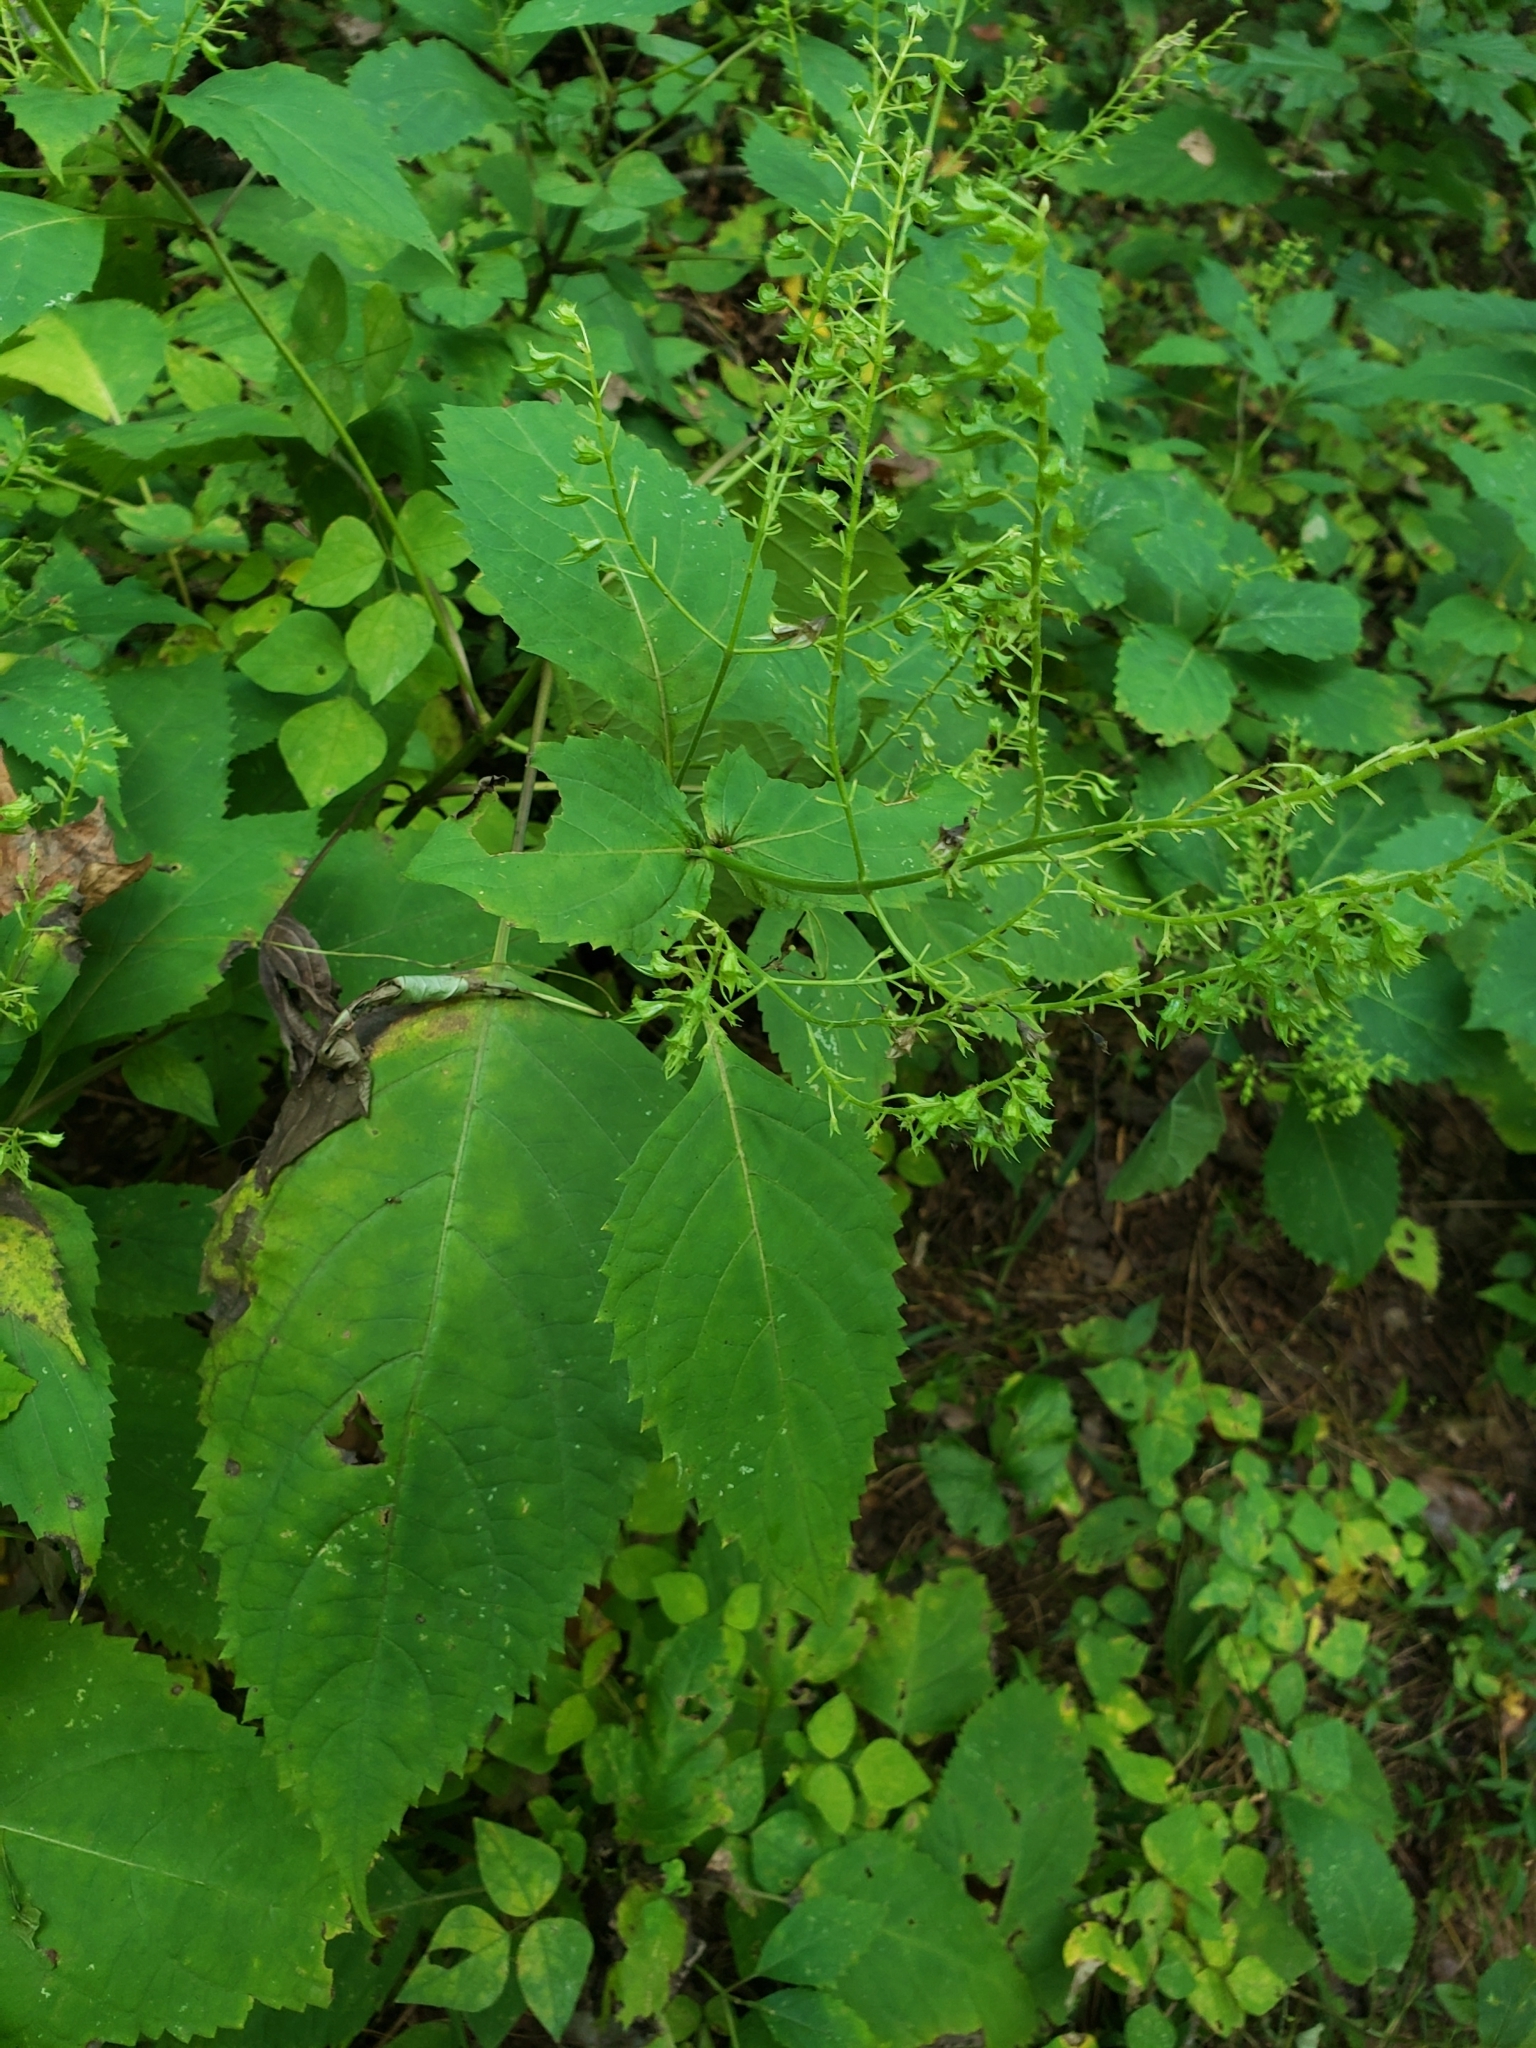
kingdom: Plantae
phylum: Tracheophyta
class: Magnoliopsida
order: Lamiales
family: Lamiaceae
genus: Collinsonia
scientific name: Collinsonia canadensis
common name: Northern horsebalm
